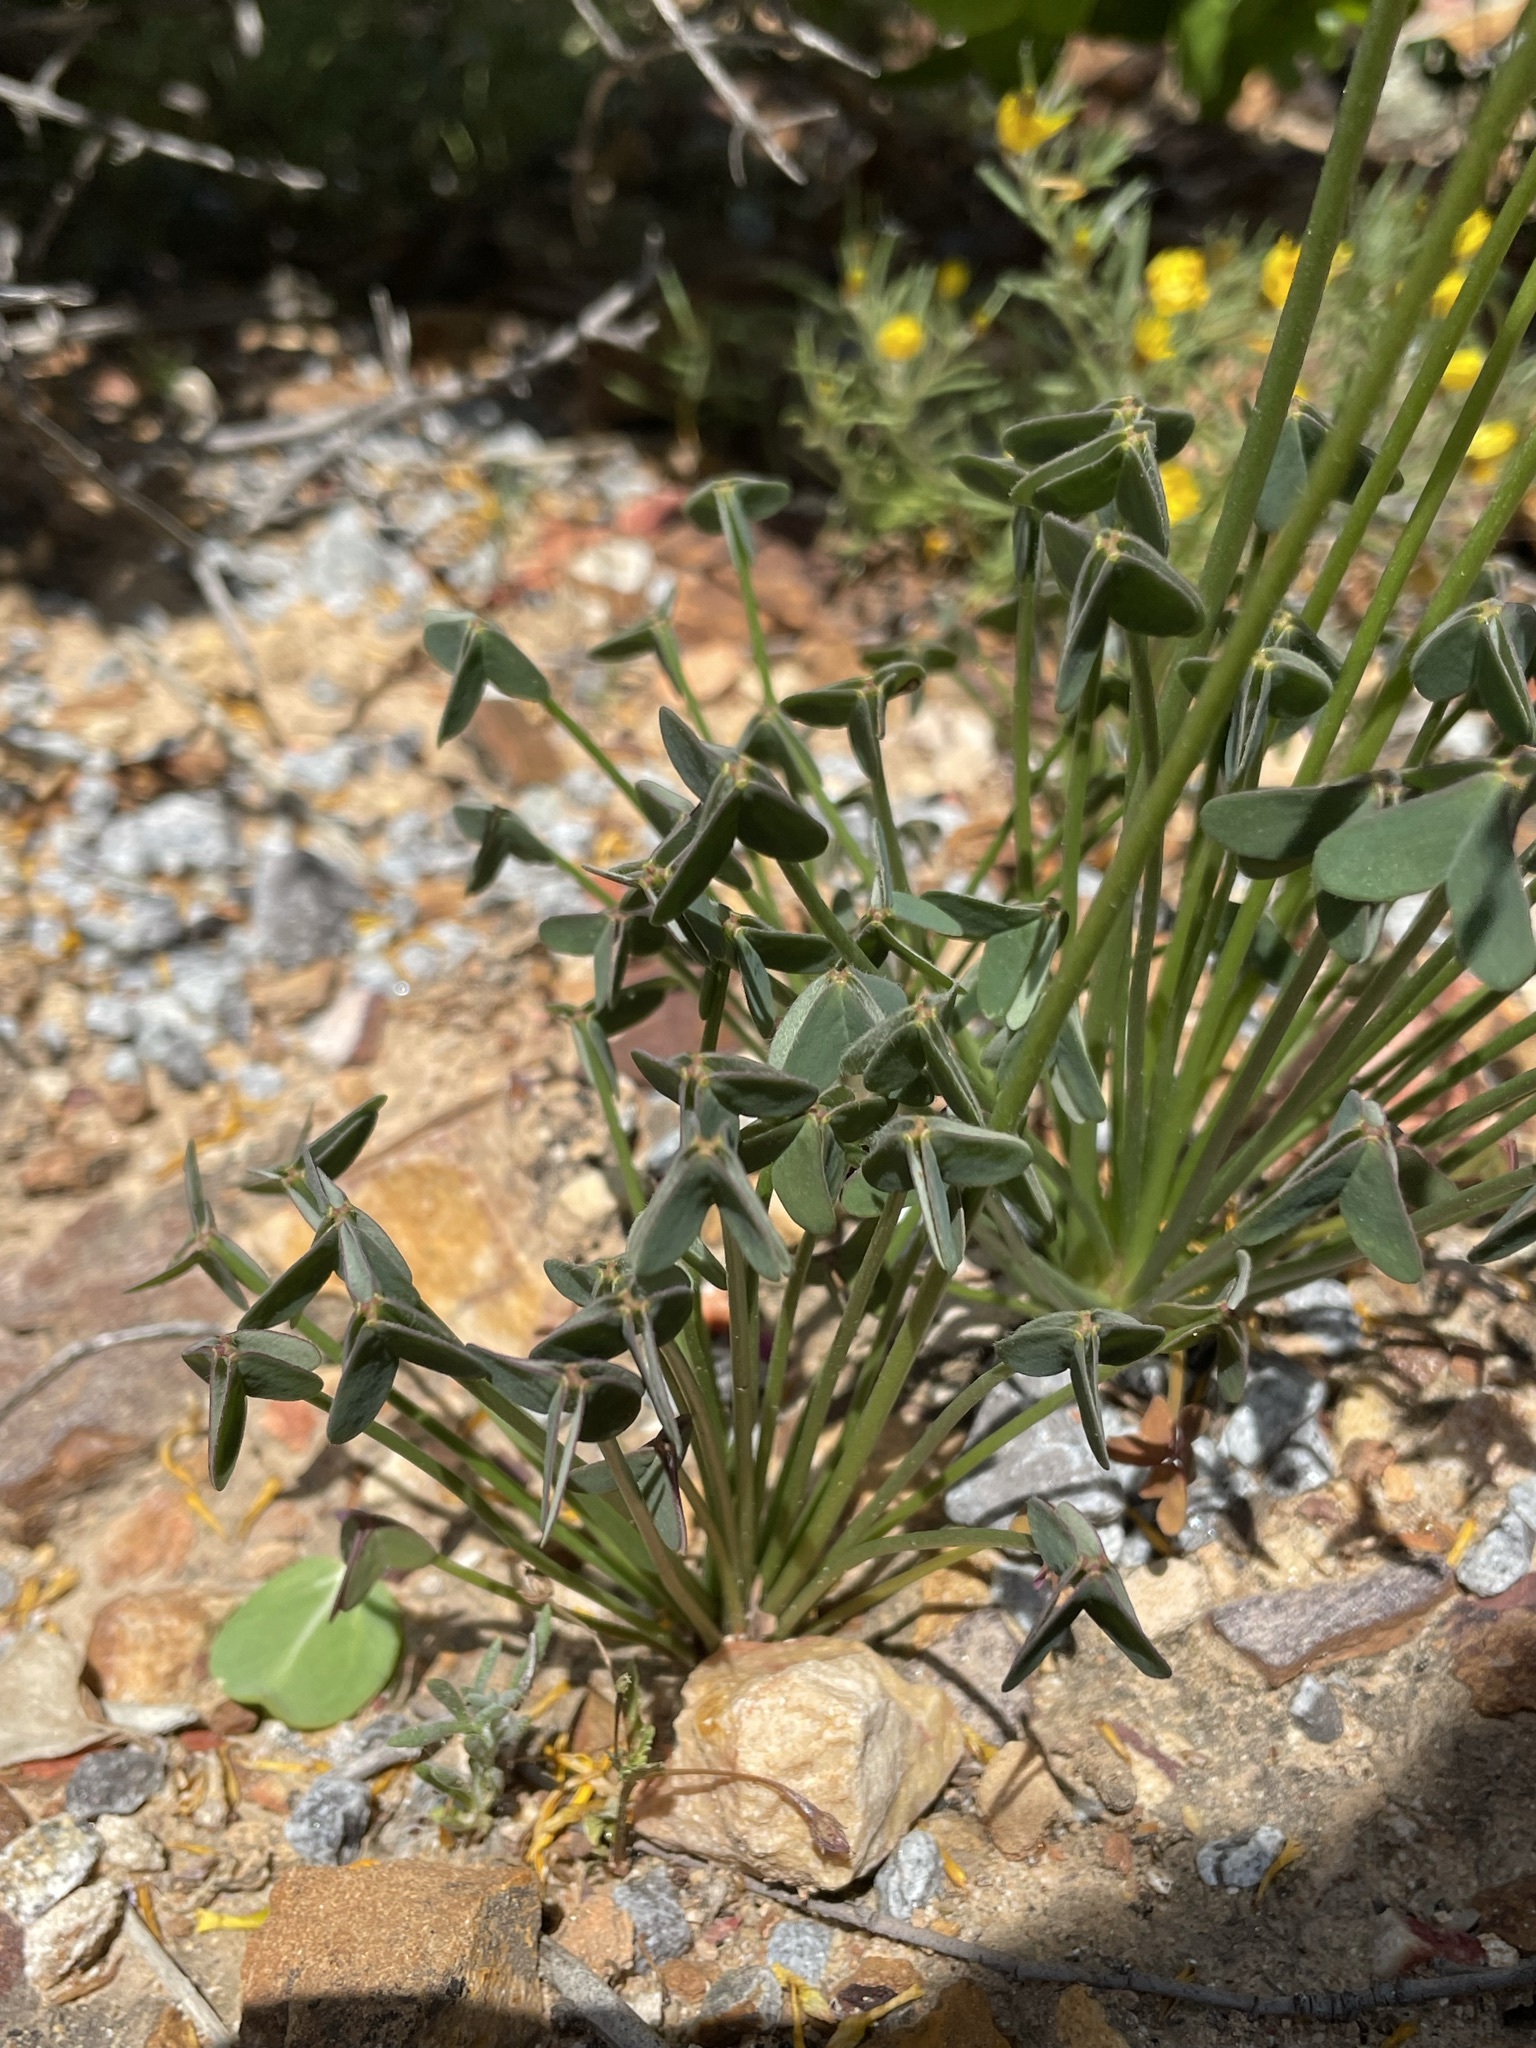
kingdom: Plantae
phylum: Tracheophyta
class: Magnoliopsida
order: Oxalidales
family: Oxalidaceae
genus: Oxalis
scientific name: Oxalis pes-caprae
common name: Bermuda-buttercup
